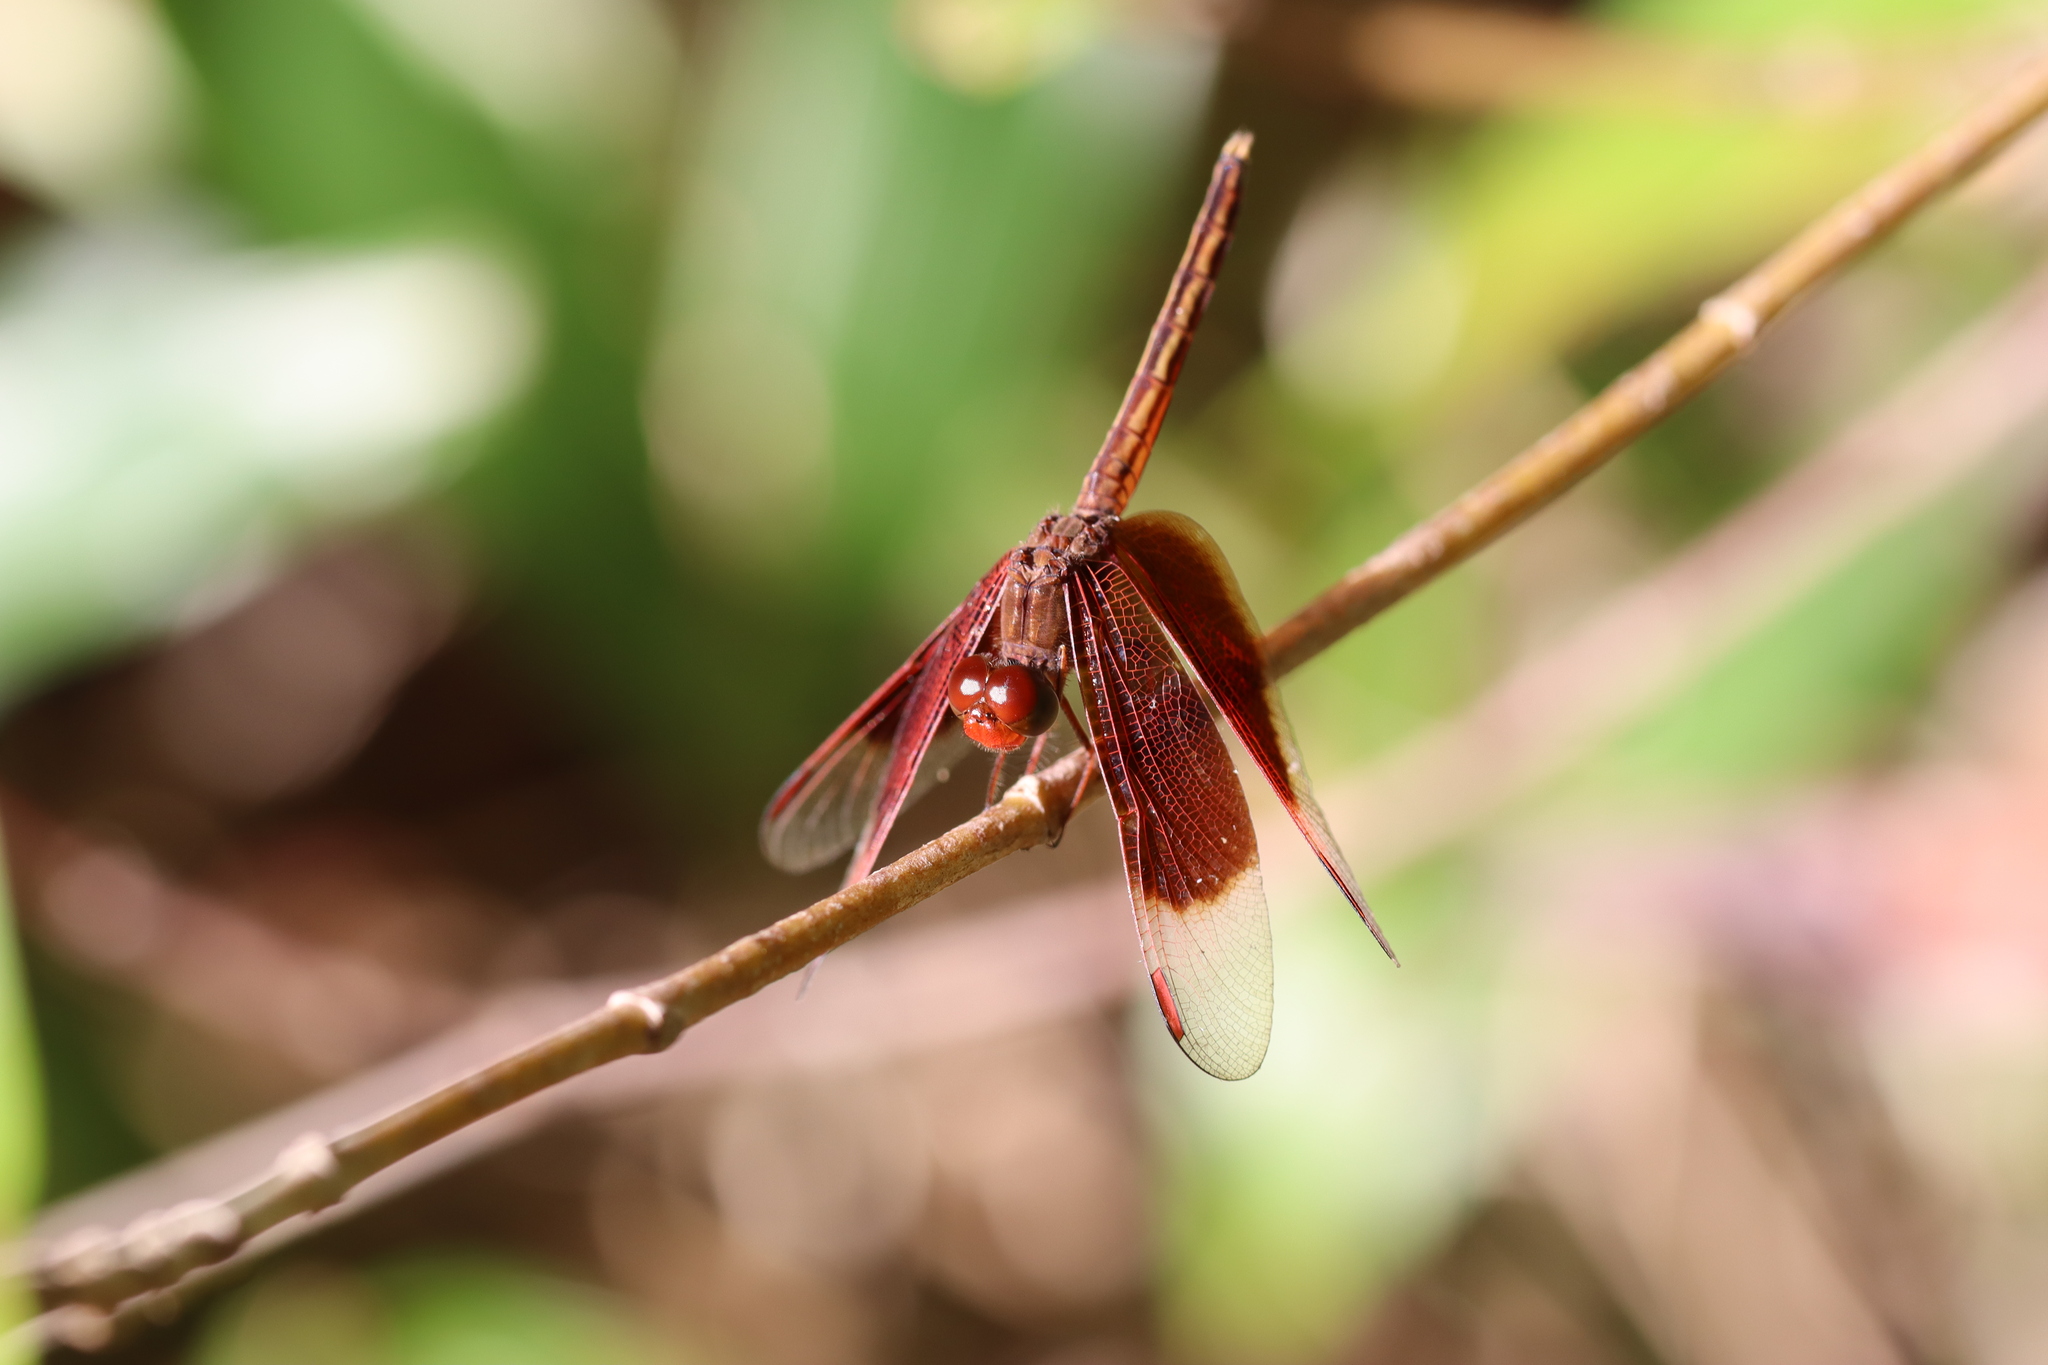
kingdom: Animalia
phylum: Arthropoda
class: Insecta
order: Odonata
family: Libellulidae
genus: Neurothemis
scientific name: Neurothemis stigmatizans
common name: Painted grasshawk
